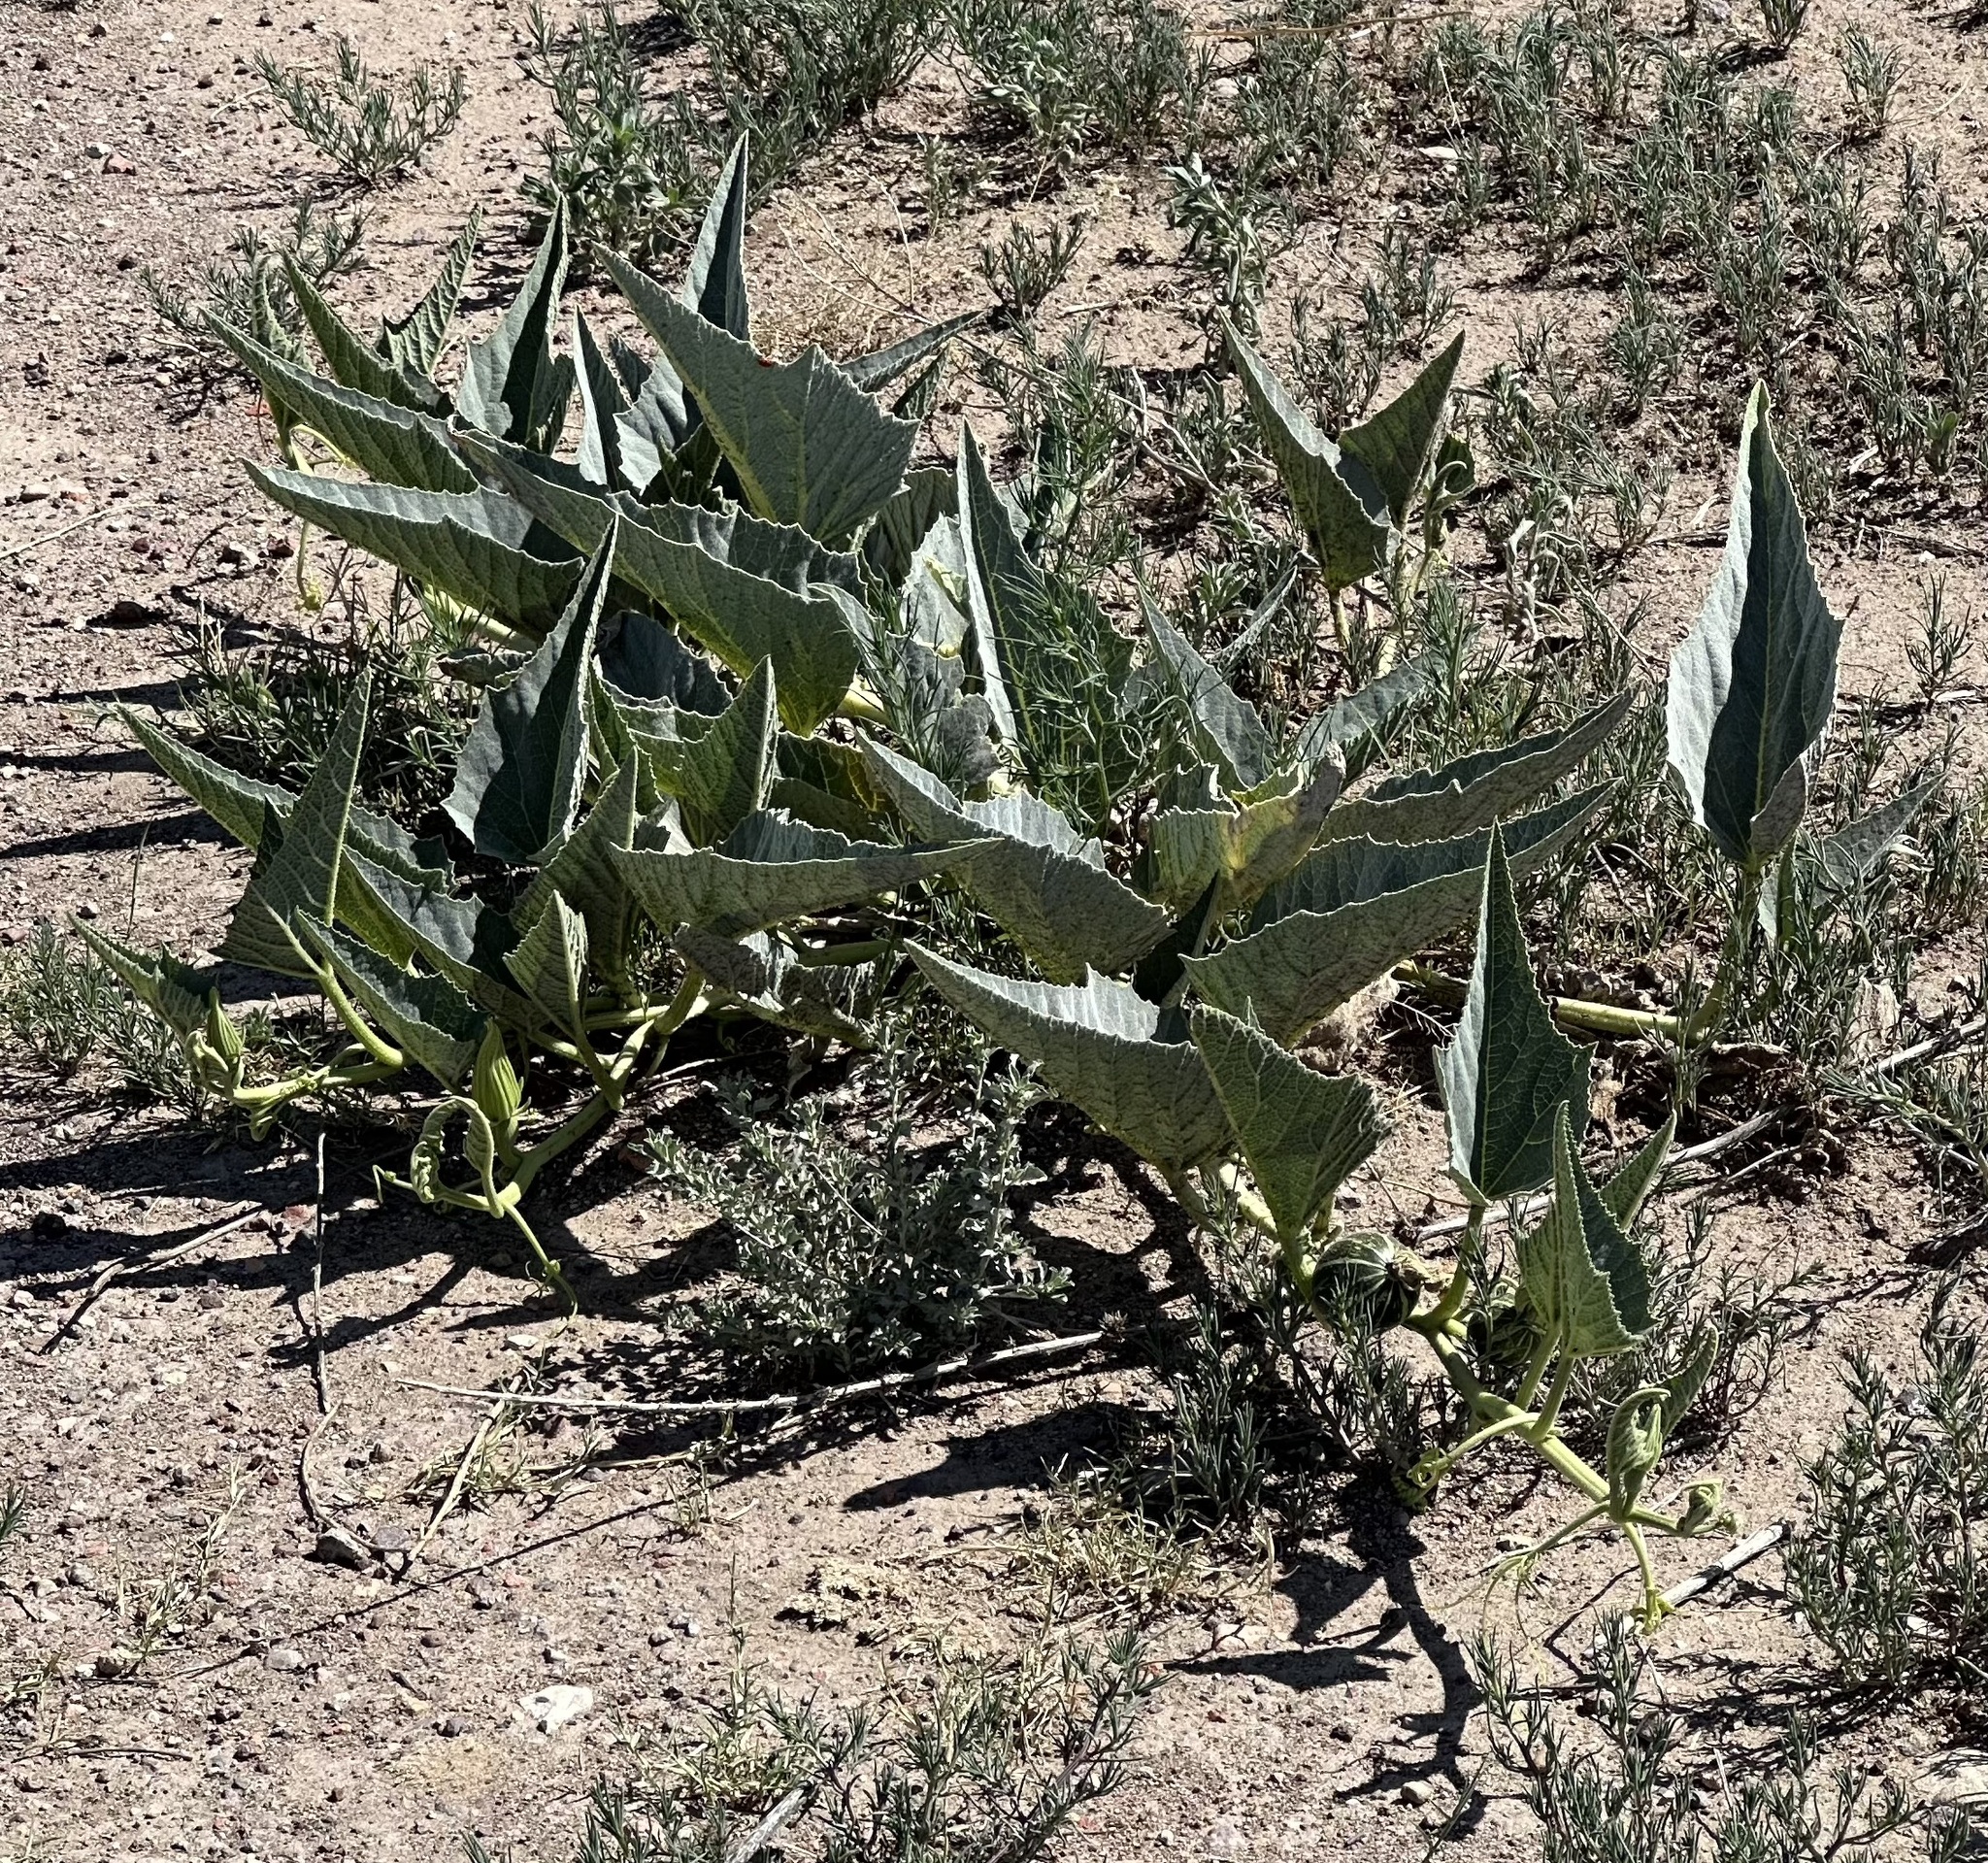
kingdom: Plantae
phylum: Tracheophyta
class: Magnoliopsida
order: Cucurbitales
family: Cucurbitaceae
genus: Cucurbita
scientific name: Cucurbita foetidissima
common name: Buffalo gourd
